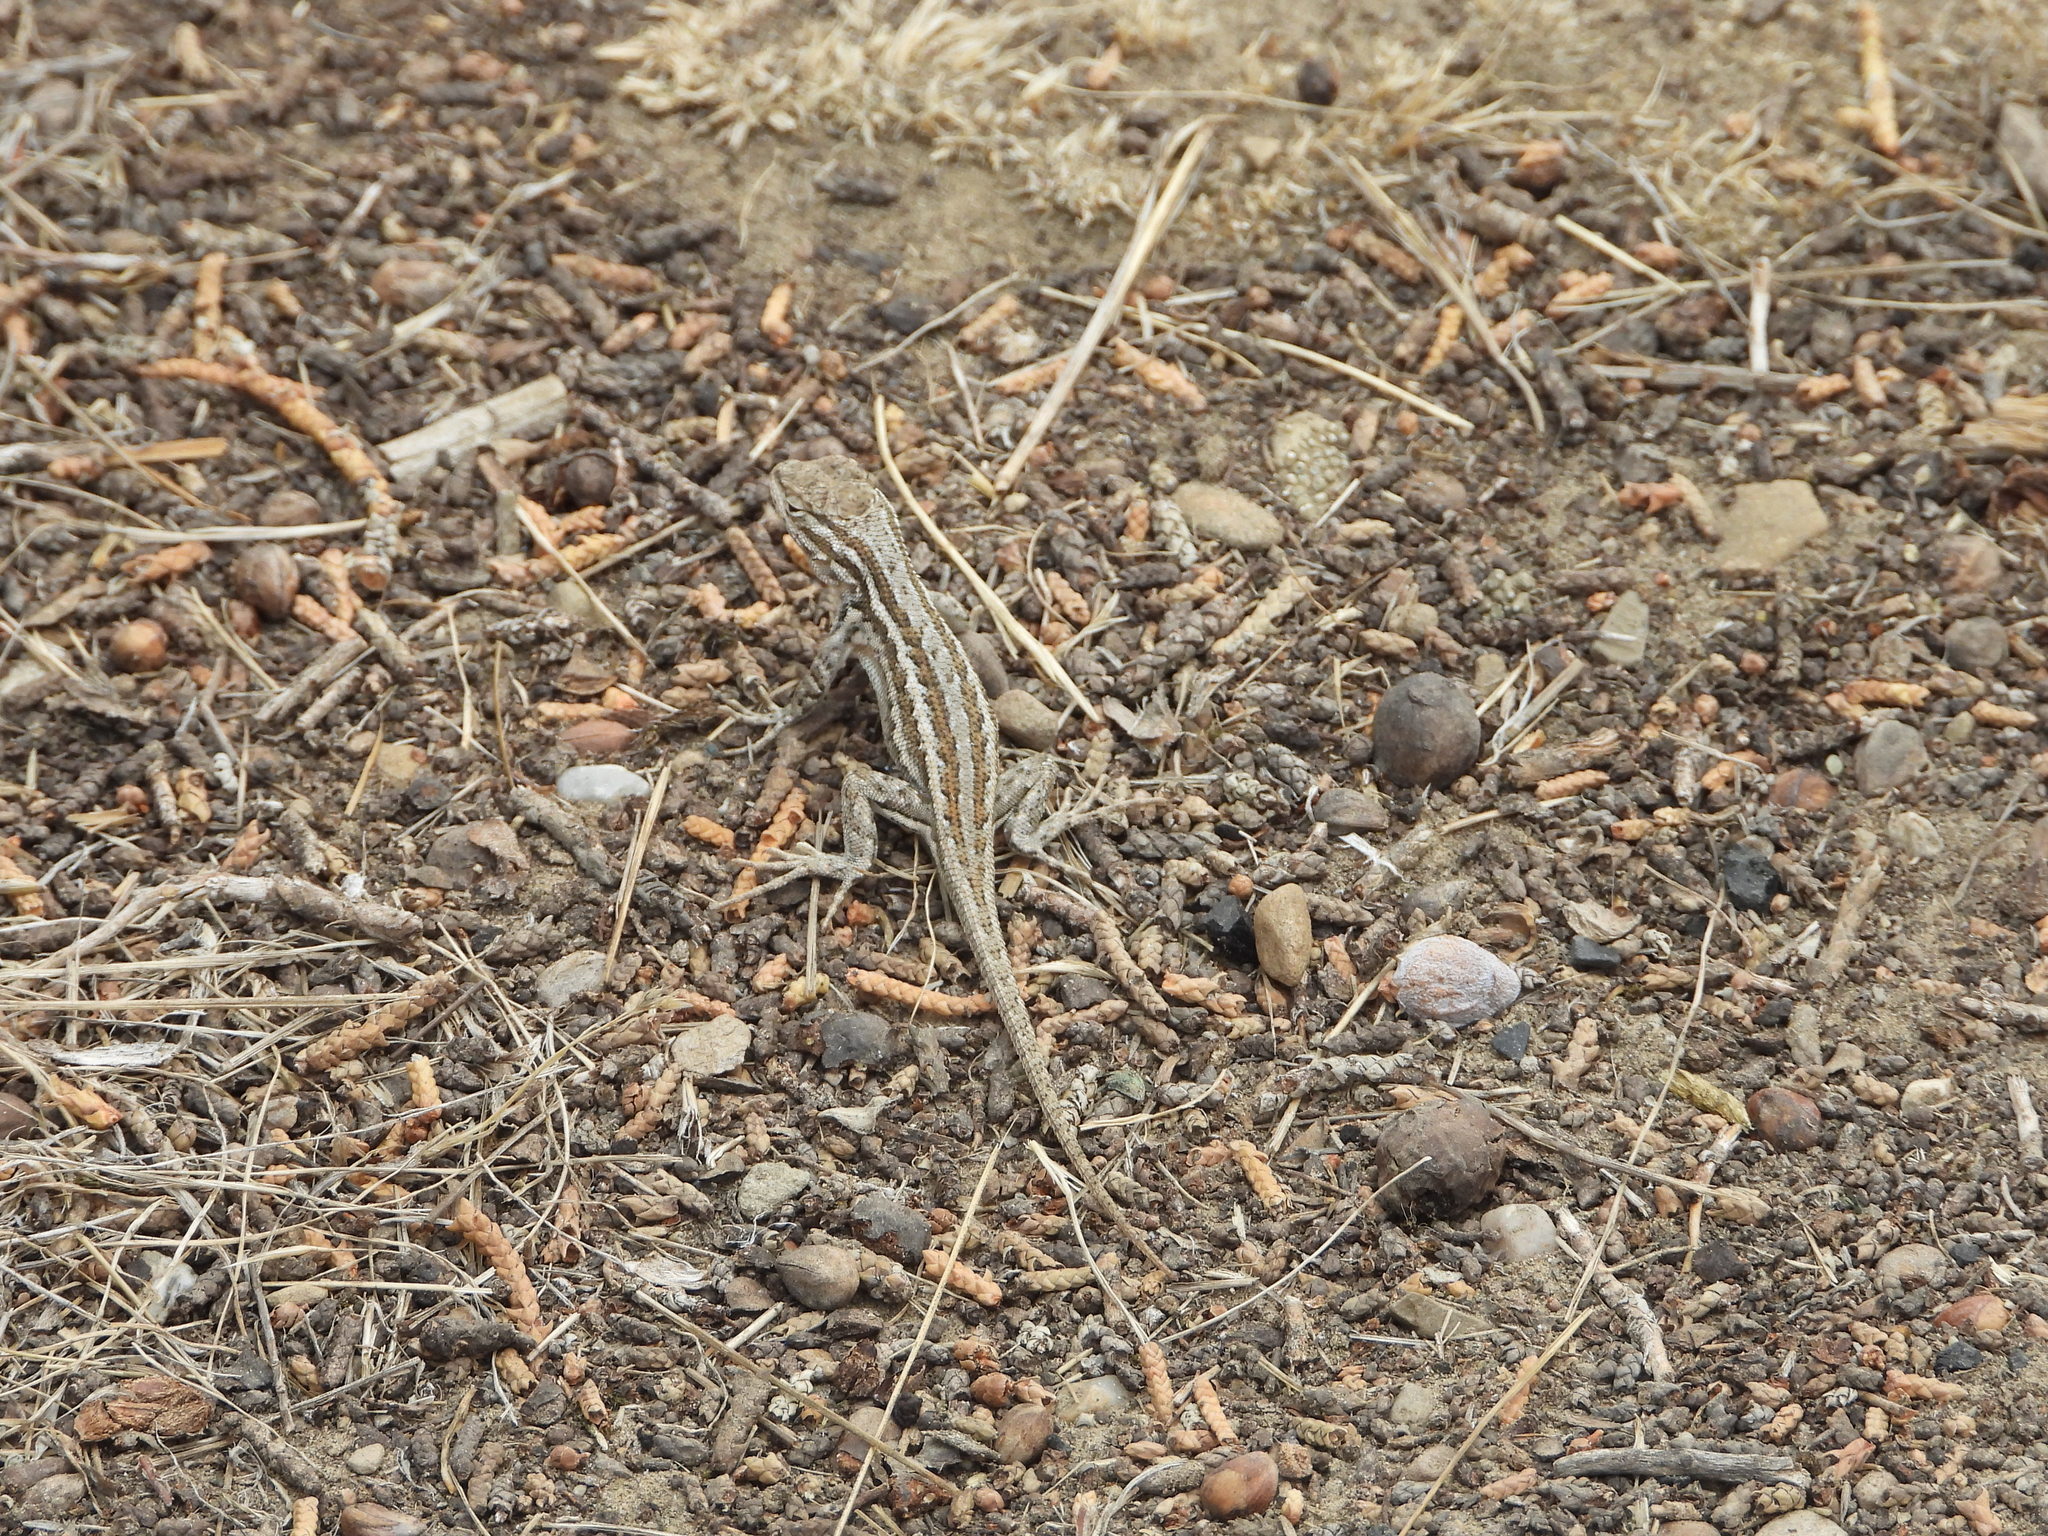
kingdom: Animalia
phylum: Chordata
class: Squamata
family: Phrynosomatidae
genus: Sceloporus
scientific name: Sceloporus graciosus
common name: Sagebrush lizard
